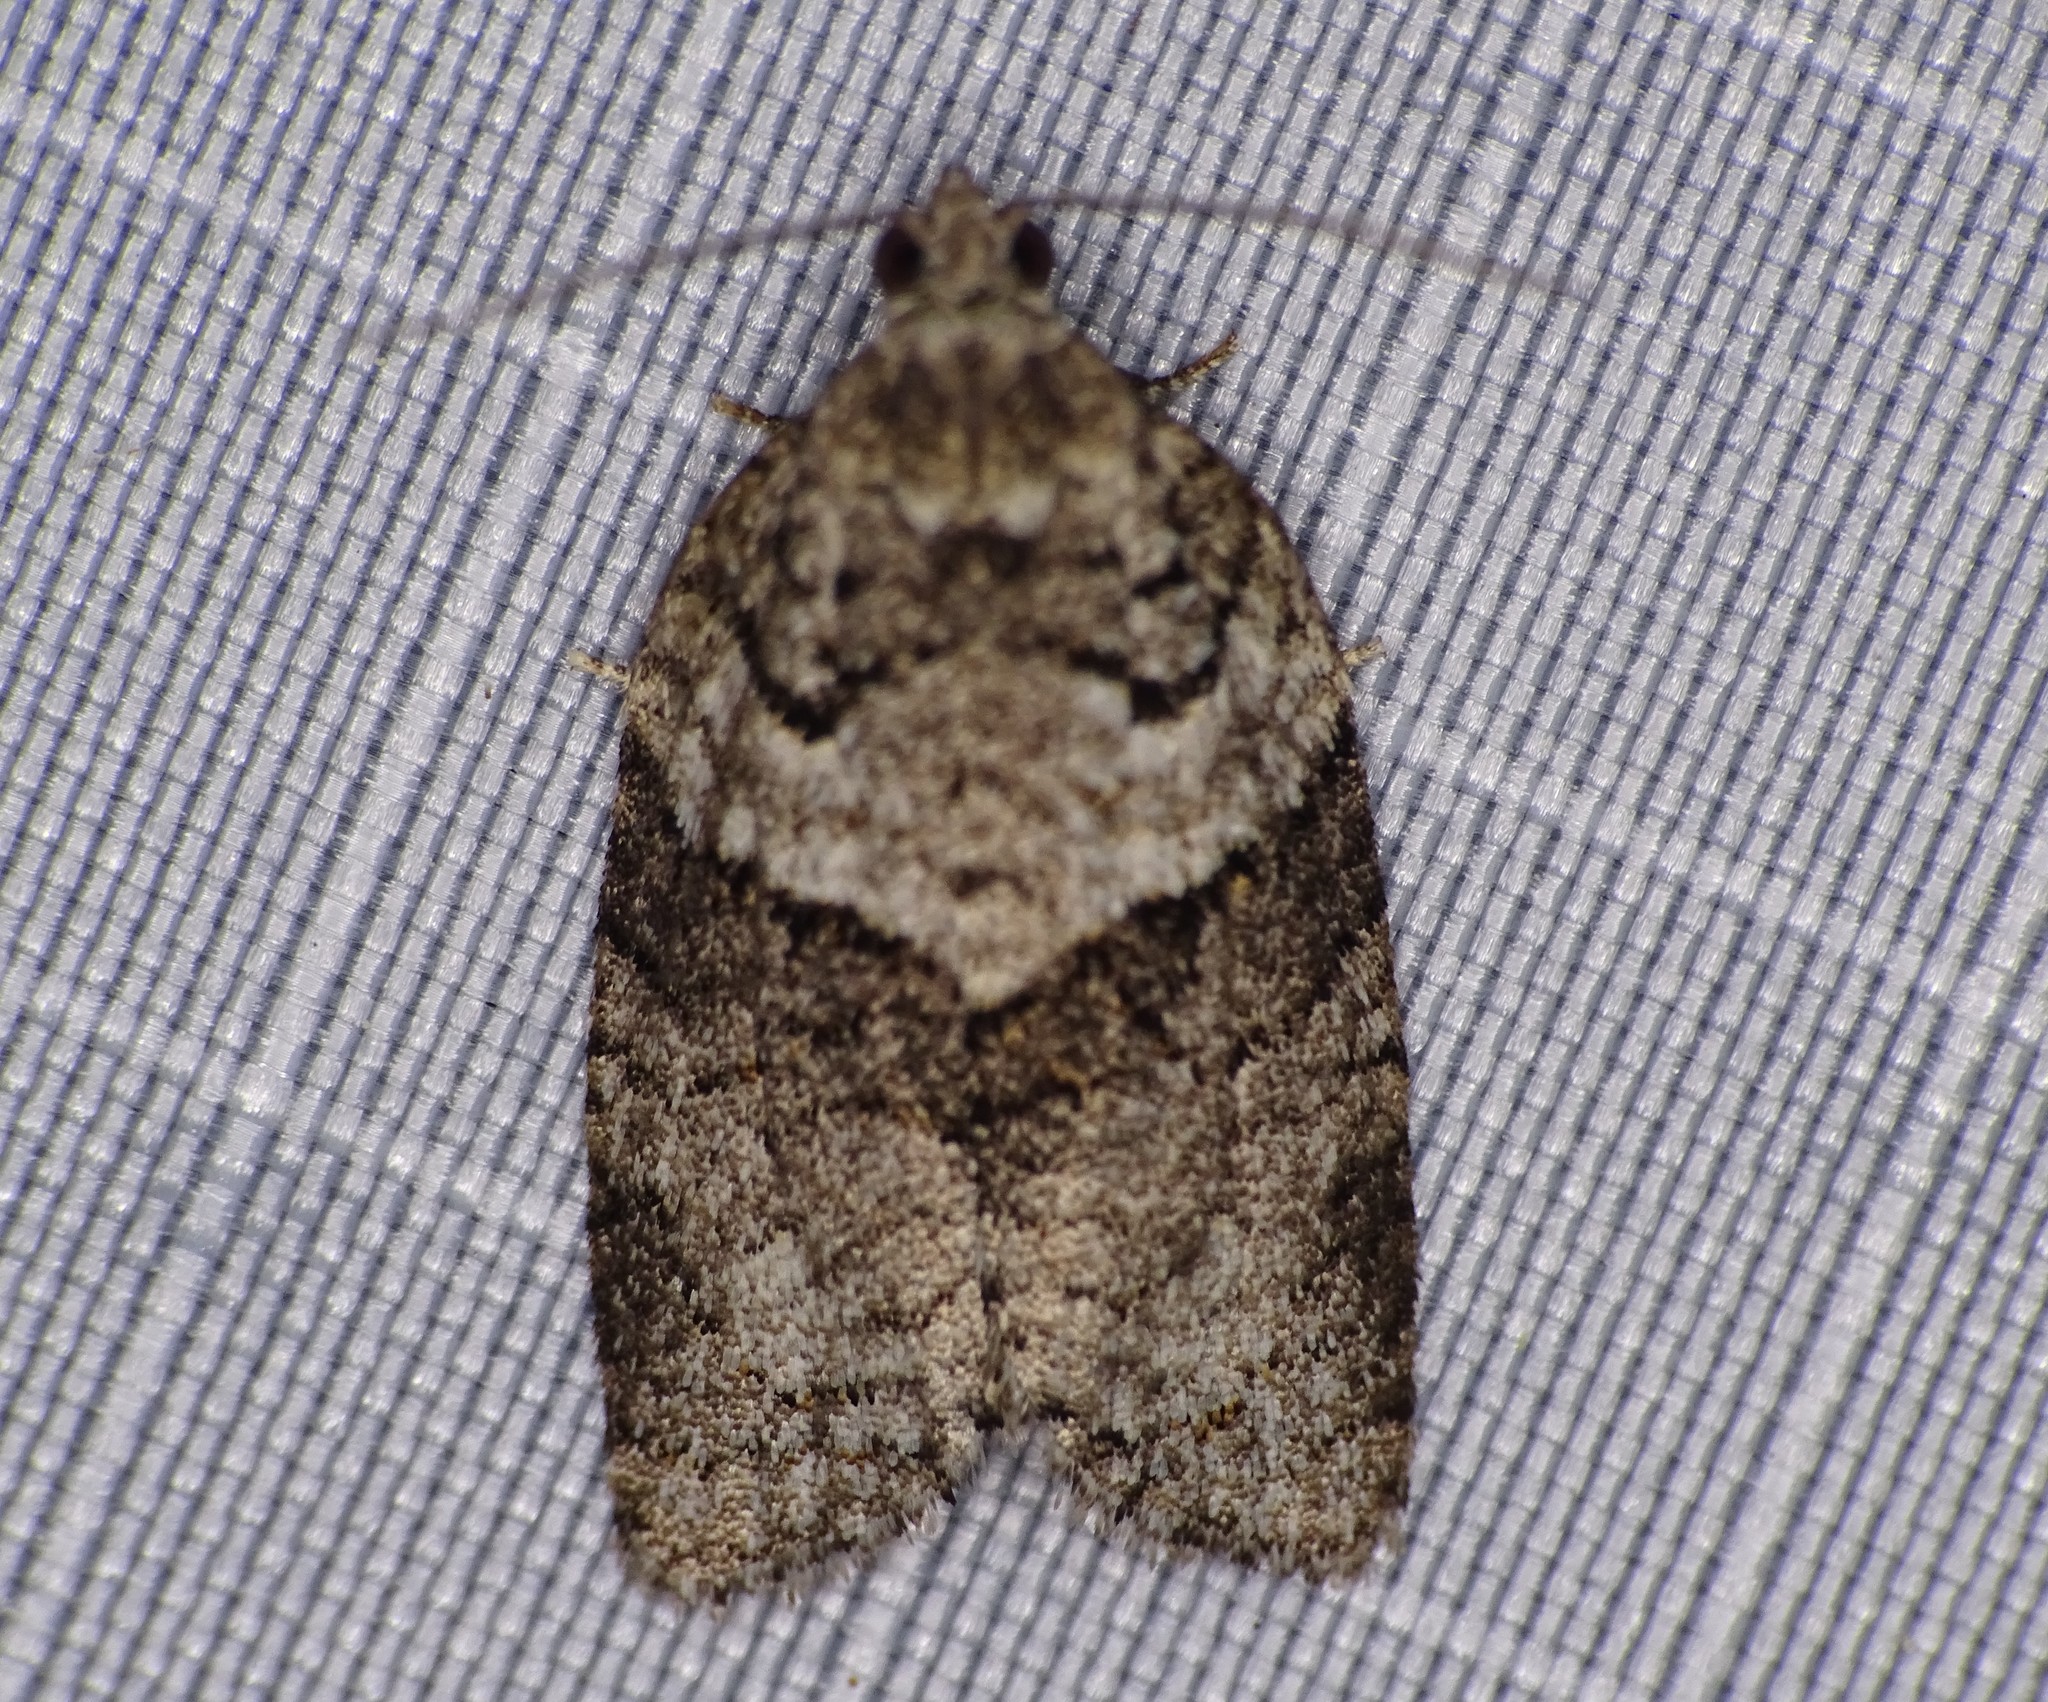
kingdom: Animalia
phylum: Arthropoda
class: Insecta
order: Lepidoptera
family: Tortricidae
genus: Syndemis
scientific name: Syndemis afflictana
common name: Gray leafroller moth
